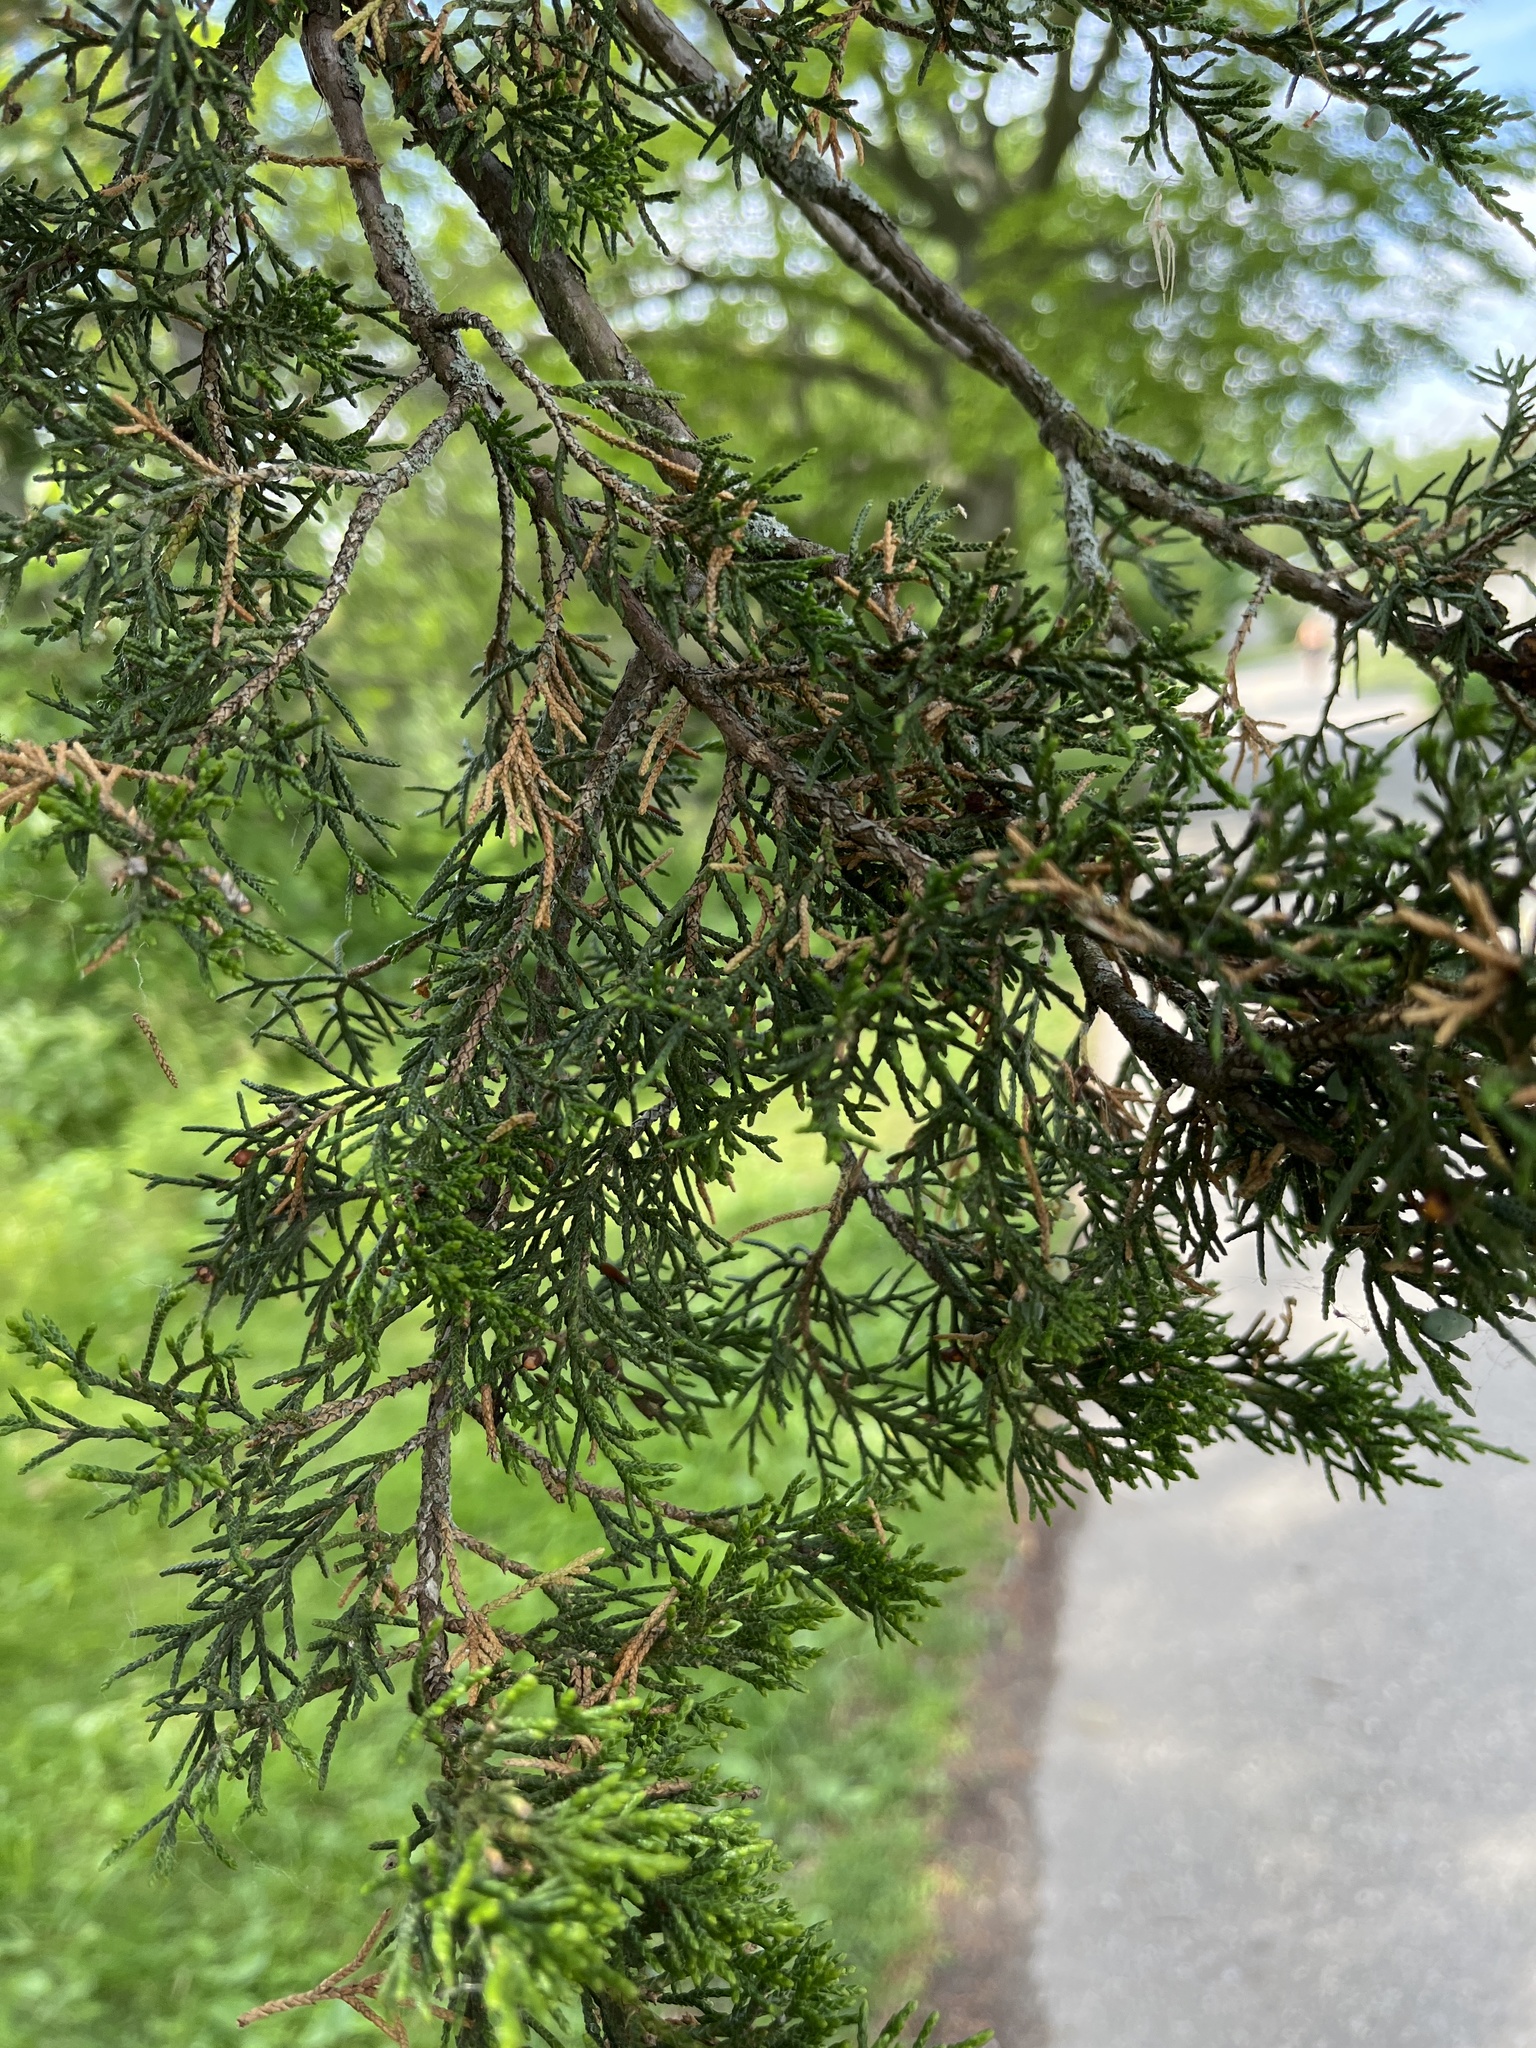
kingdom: Plantae
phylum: Tracheophyta
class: Pinopsida
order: Pinales
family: Cupressaceae
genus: Juniperus
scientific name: Juniperus virginiana
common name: Red juniper
